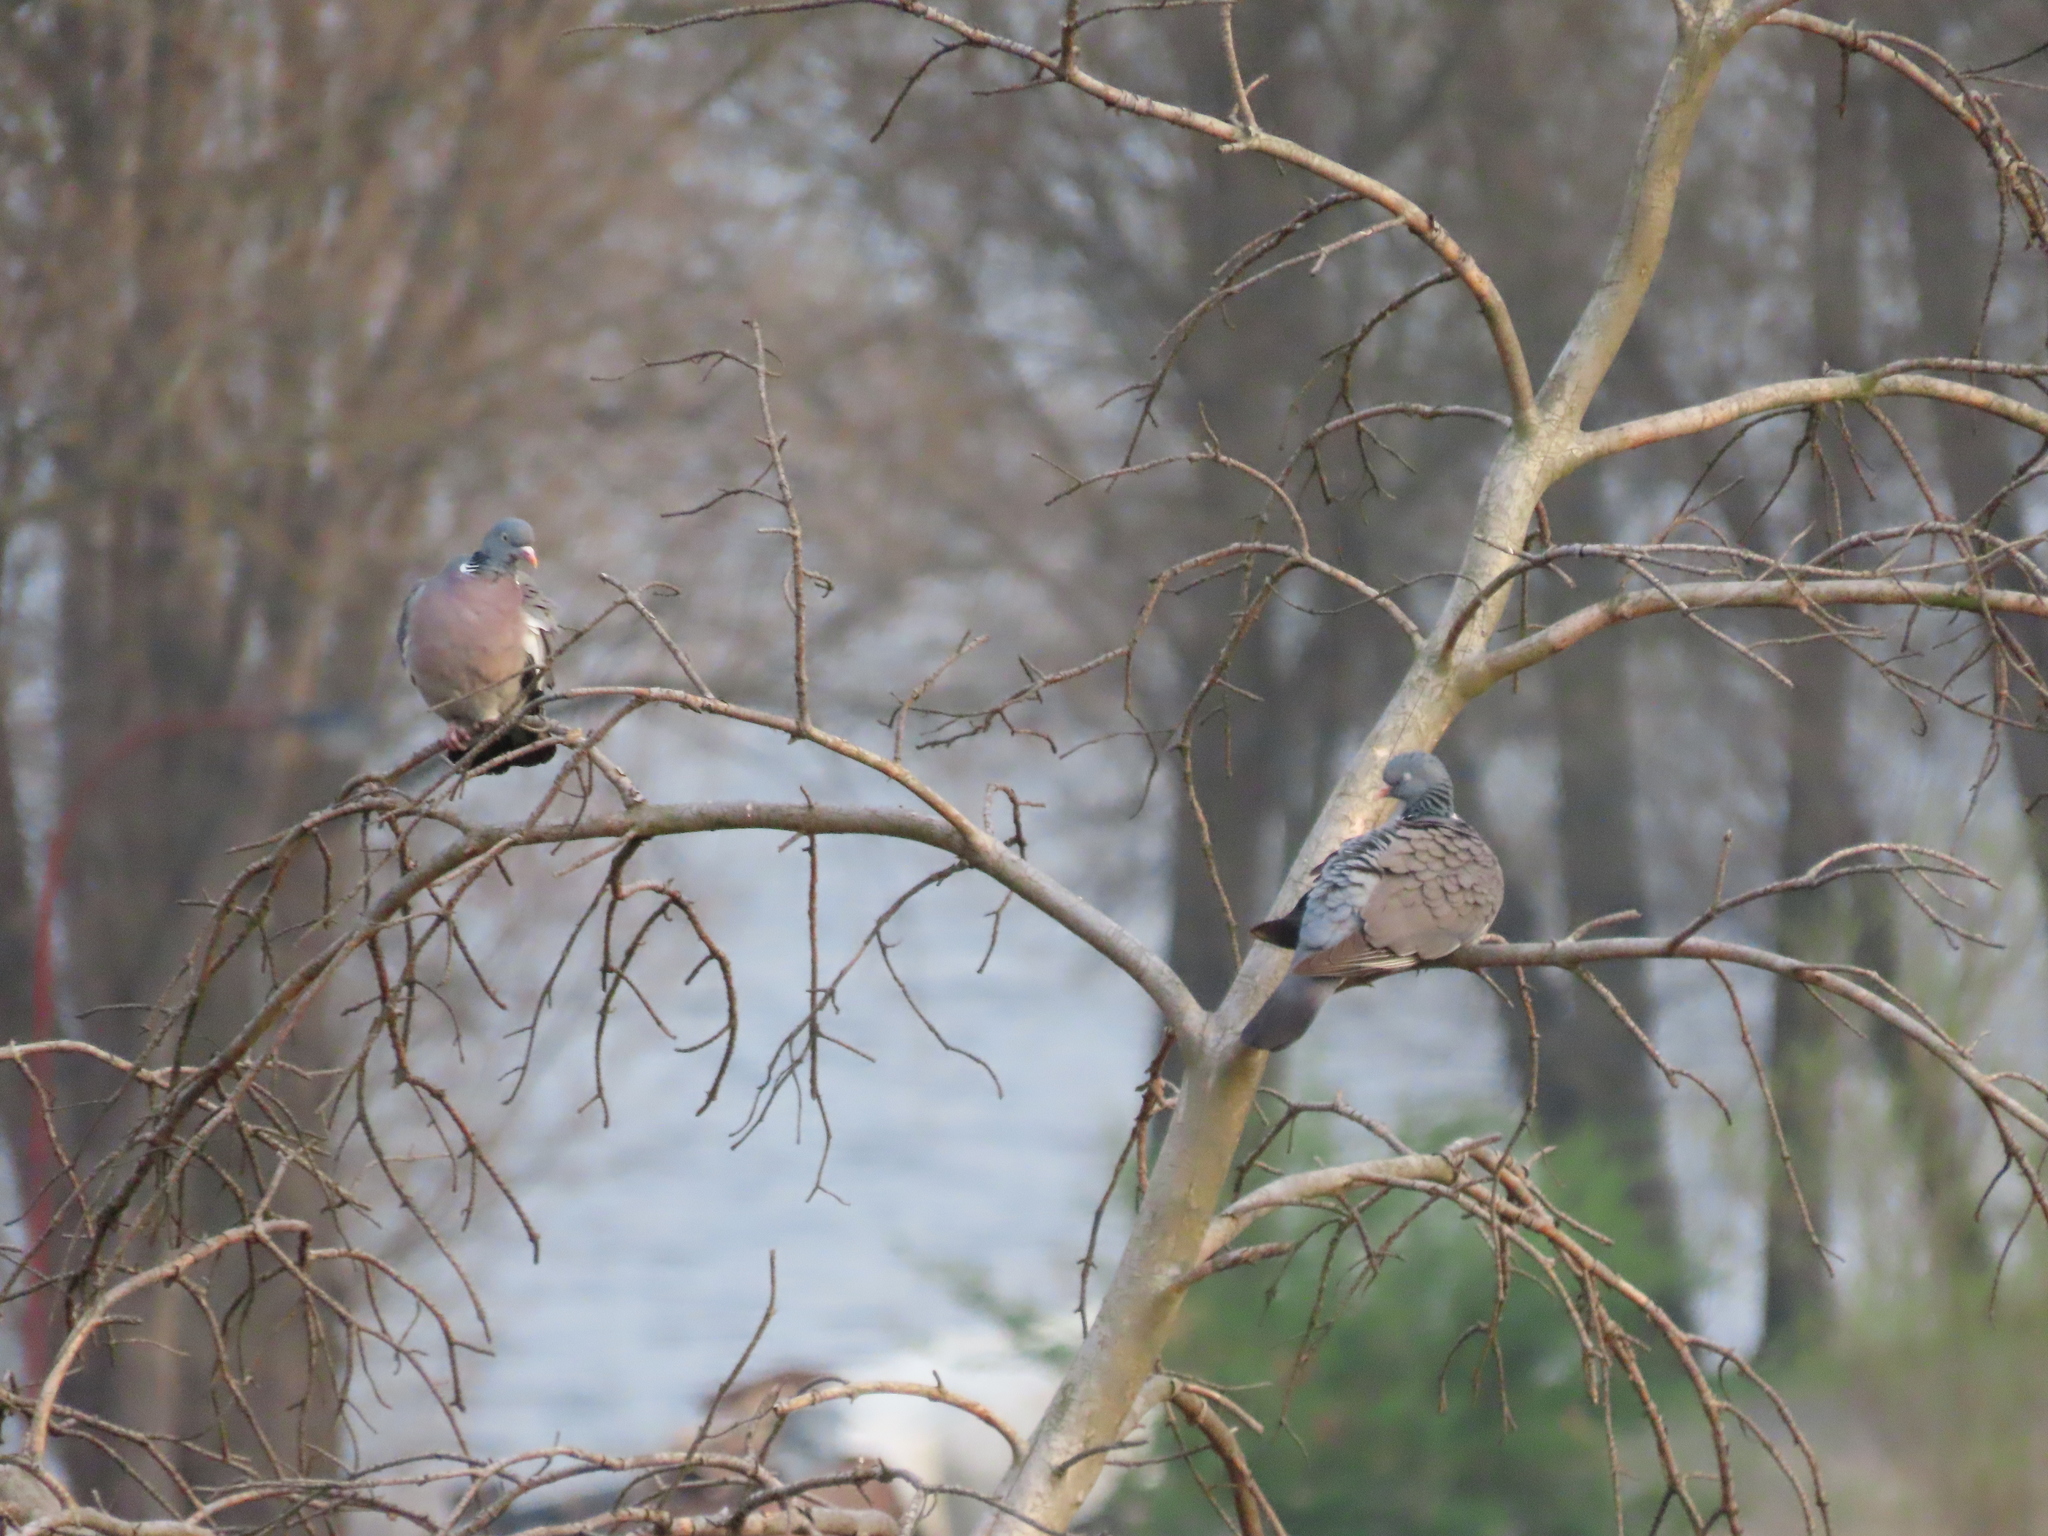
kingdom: Animalia
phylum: Chordata
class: Aves
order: Columbiformes
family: Columbidae
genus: Columba
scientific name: Columba palumbus
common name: Common wood pigeon
